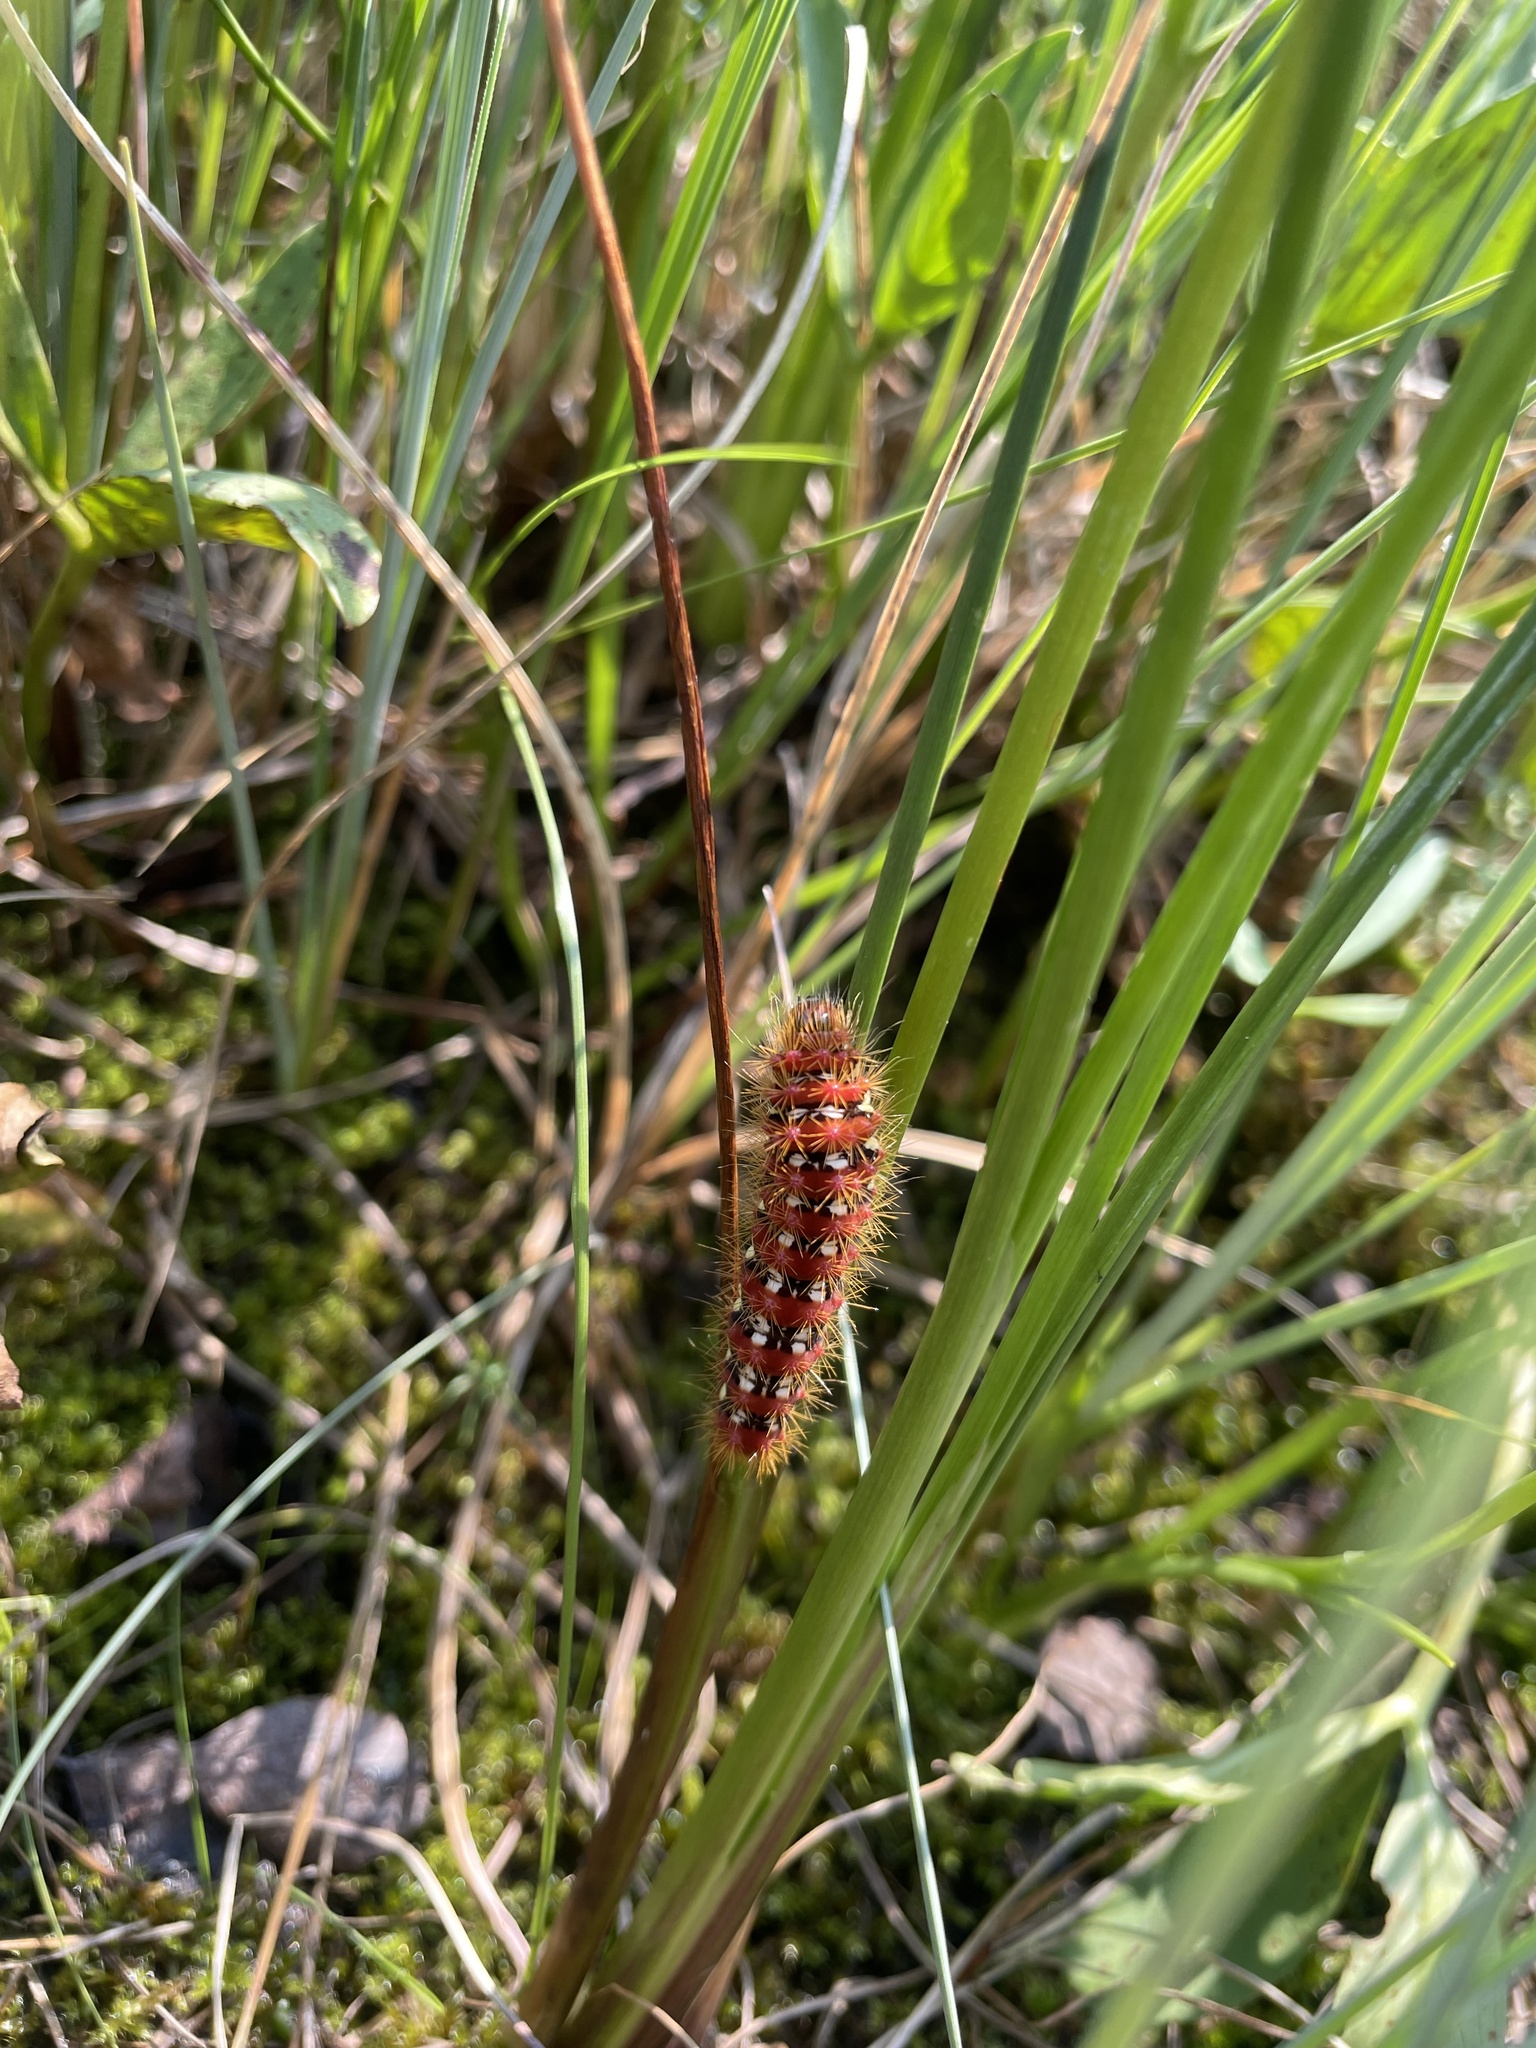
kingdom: Animalia
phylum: Arthropoda
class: Insecta
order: Lepidoptera
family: Noctuidae
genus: Acronicta
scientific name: Acronicta oblinita
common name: Smeared dagger
